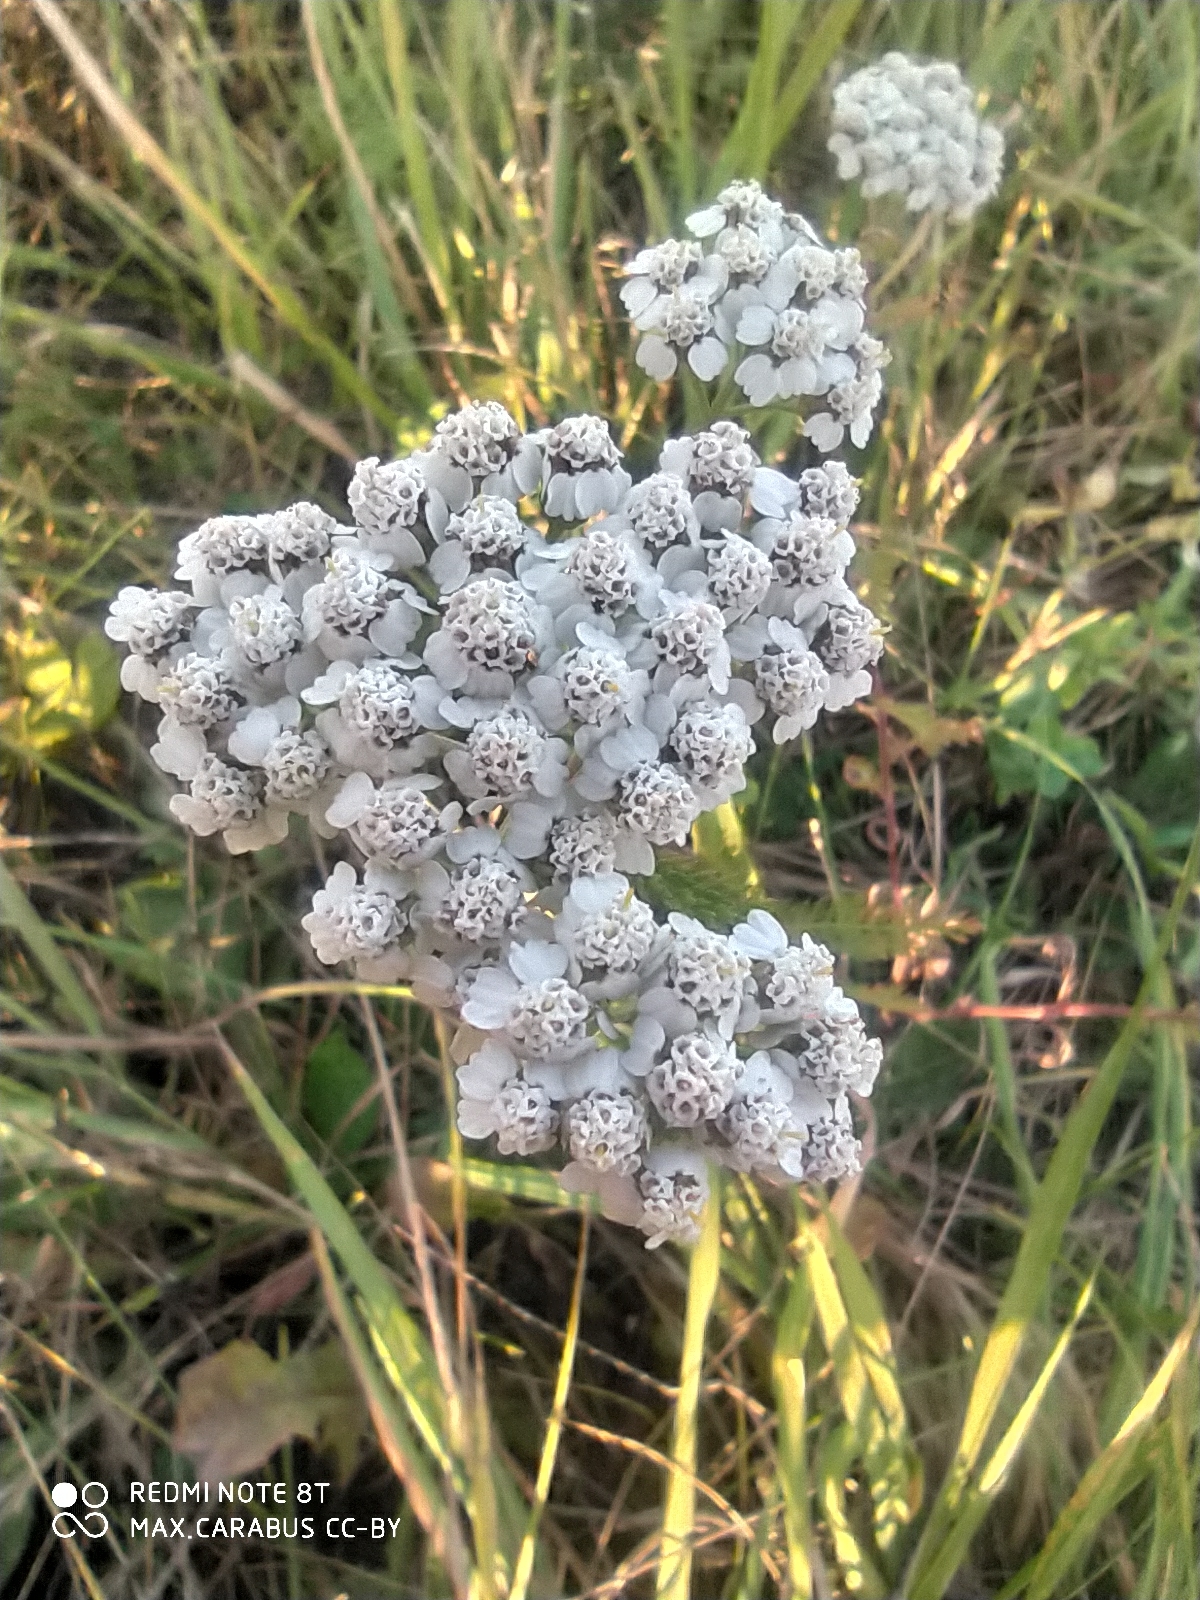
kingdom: Plantae
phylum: Tracheophyta
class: Magnoliopsida
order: Asterales
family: Asteraceae
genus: Achillea
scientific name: Achillea millefolium
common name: Yarrow
